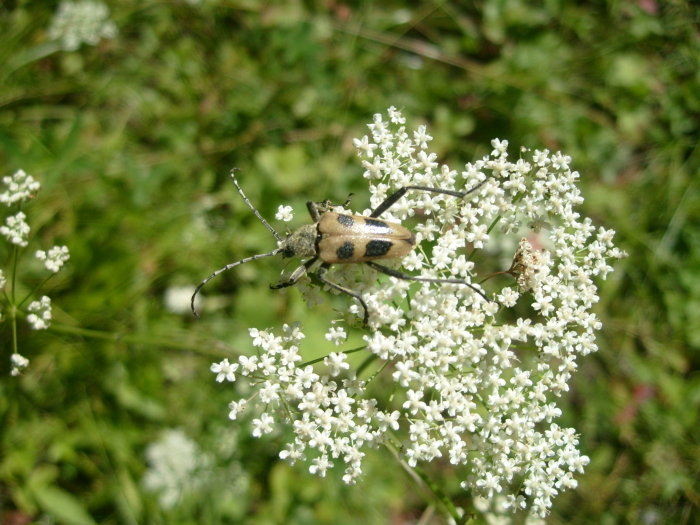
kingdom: Animalia
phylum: Arthropoda
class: Insecta
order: Coleoptera
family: Cerambycidae
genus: Pachyta
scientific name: Pachyta quadrimaculata
